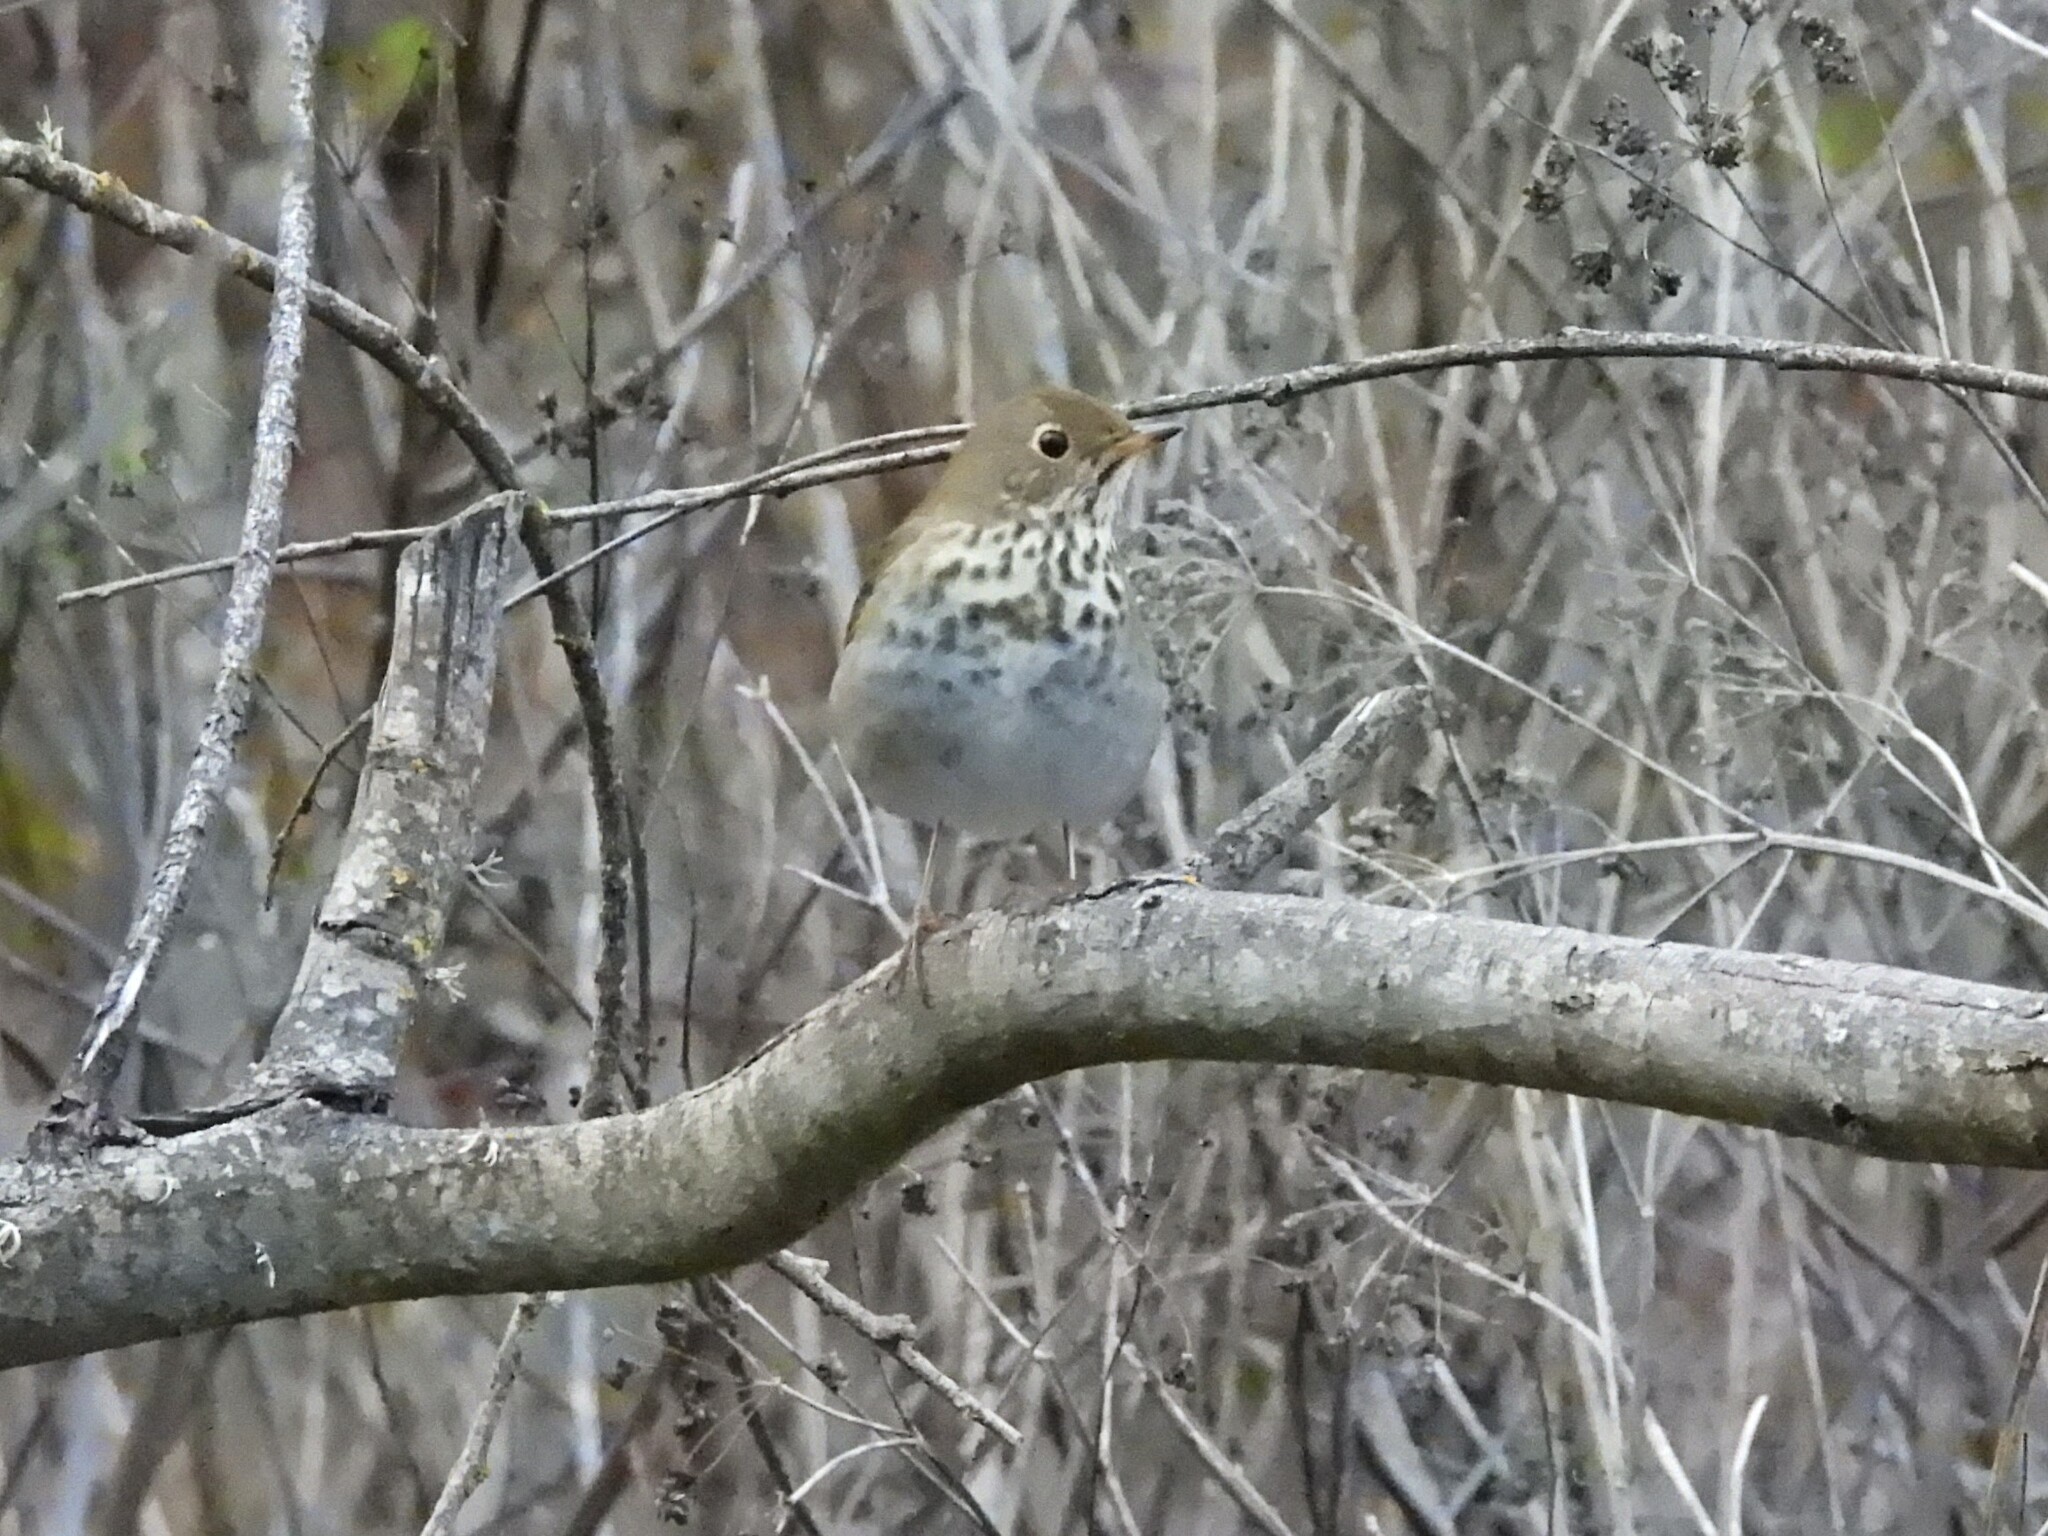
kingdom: Animalia
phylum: Chordata
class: Aves
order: Passeriformes
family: Turdidae
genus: Catharus
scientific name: Catharus guttatus
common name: Hermit thrush
